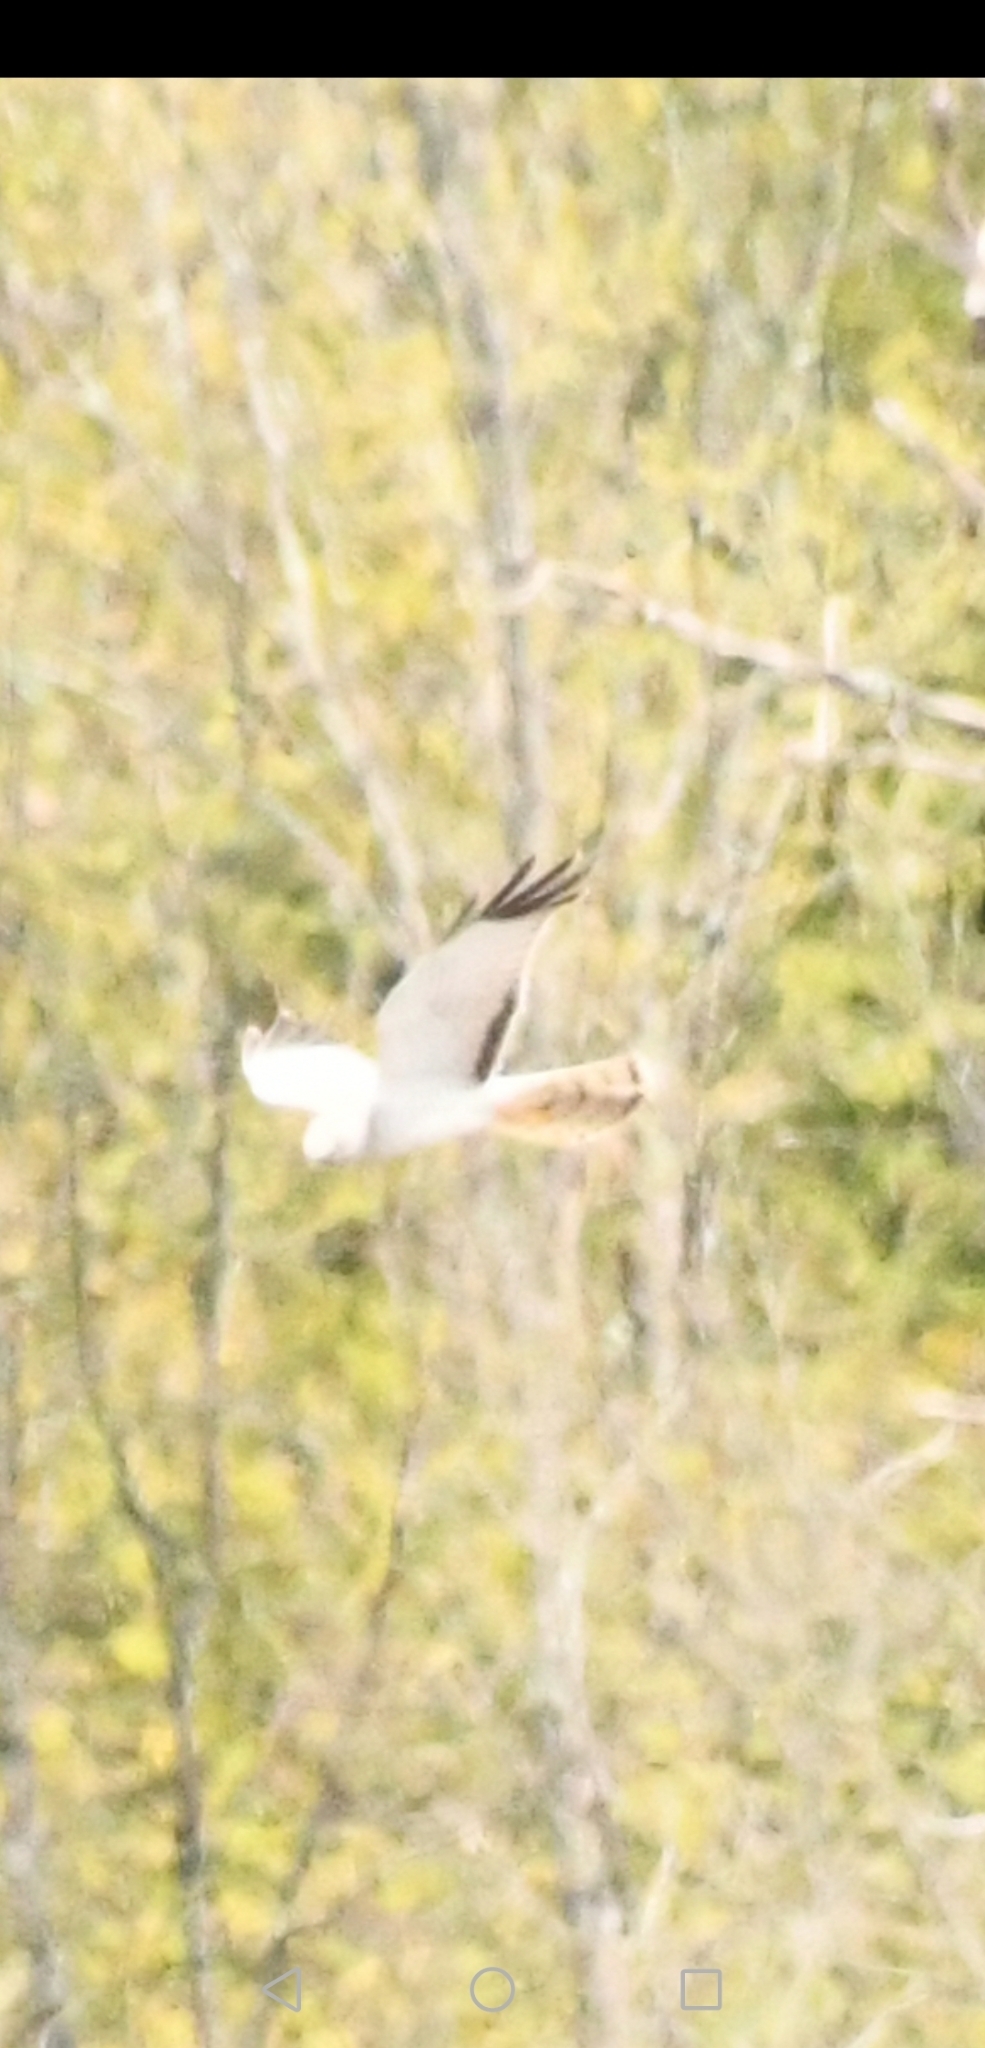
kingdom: Animalia
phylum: Chordata
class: Aves
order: Accipitriformes
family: Accipitridae
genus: Circus
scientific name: Circus cyaneus
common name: Hen harrier
